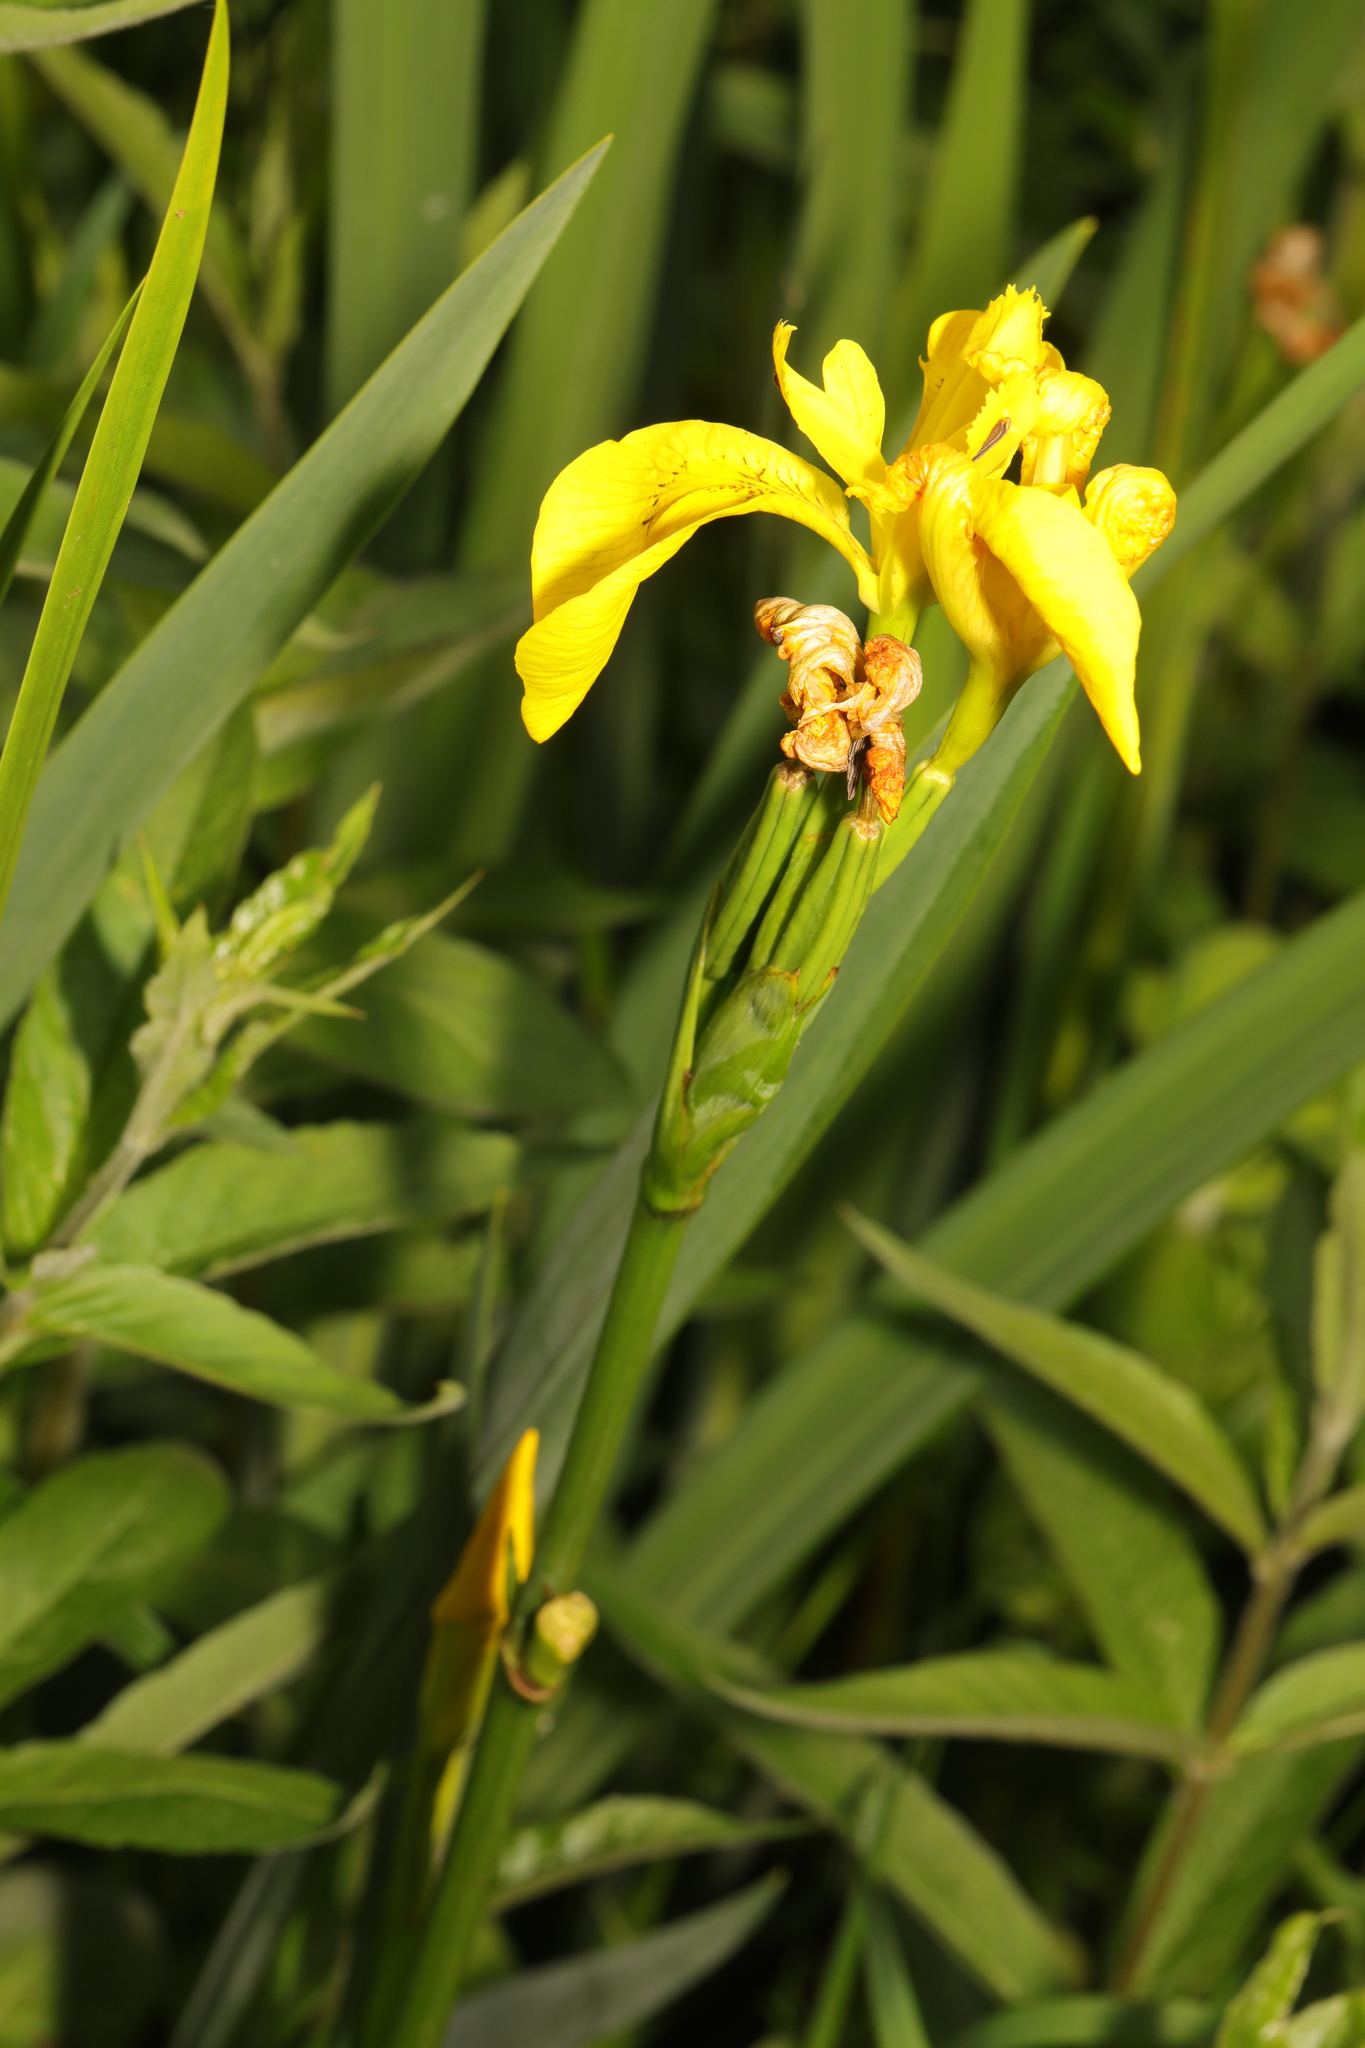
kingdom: Plantae
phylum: Tracheophyta
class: Liliopsida
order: Asparagales
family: Iridaceae
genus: Iris
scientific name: Iris pseudacorus
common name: Yellow flag
